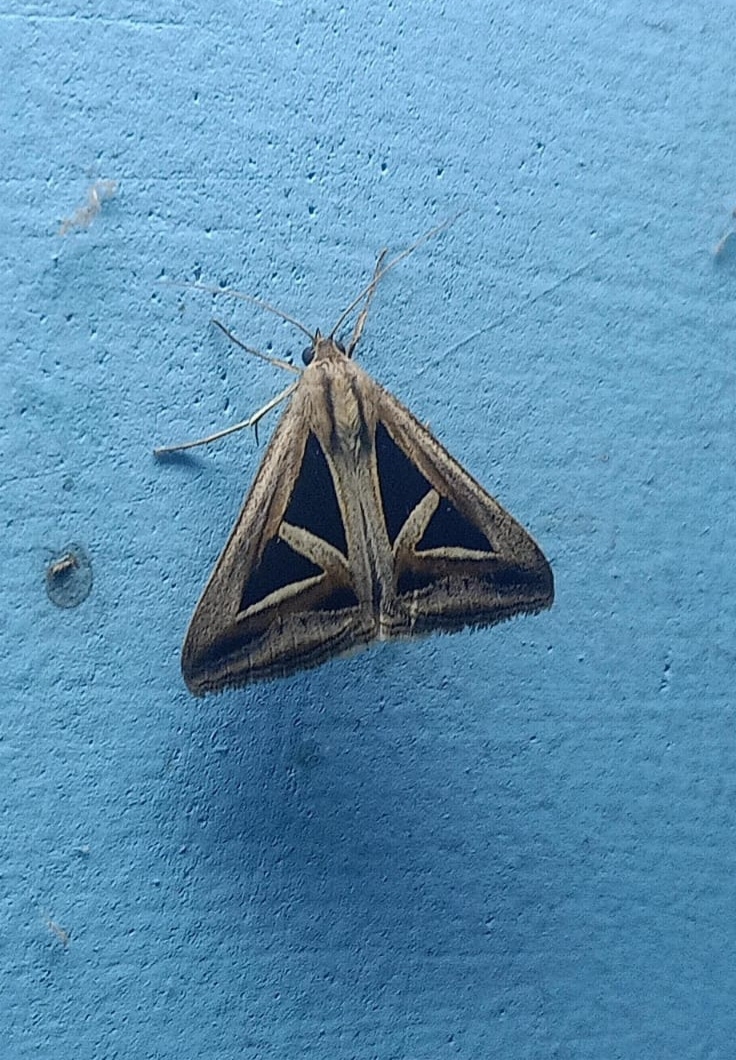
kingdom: Animalia
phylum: Arthropoda
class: Insecta
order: Lepidoptera
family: Erebidae
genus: Trigonodes
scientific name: Trigonodes hyppasia
